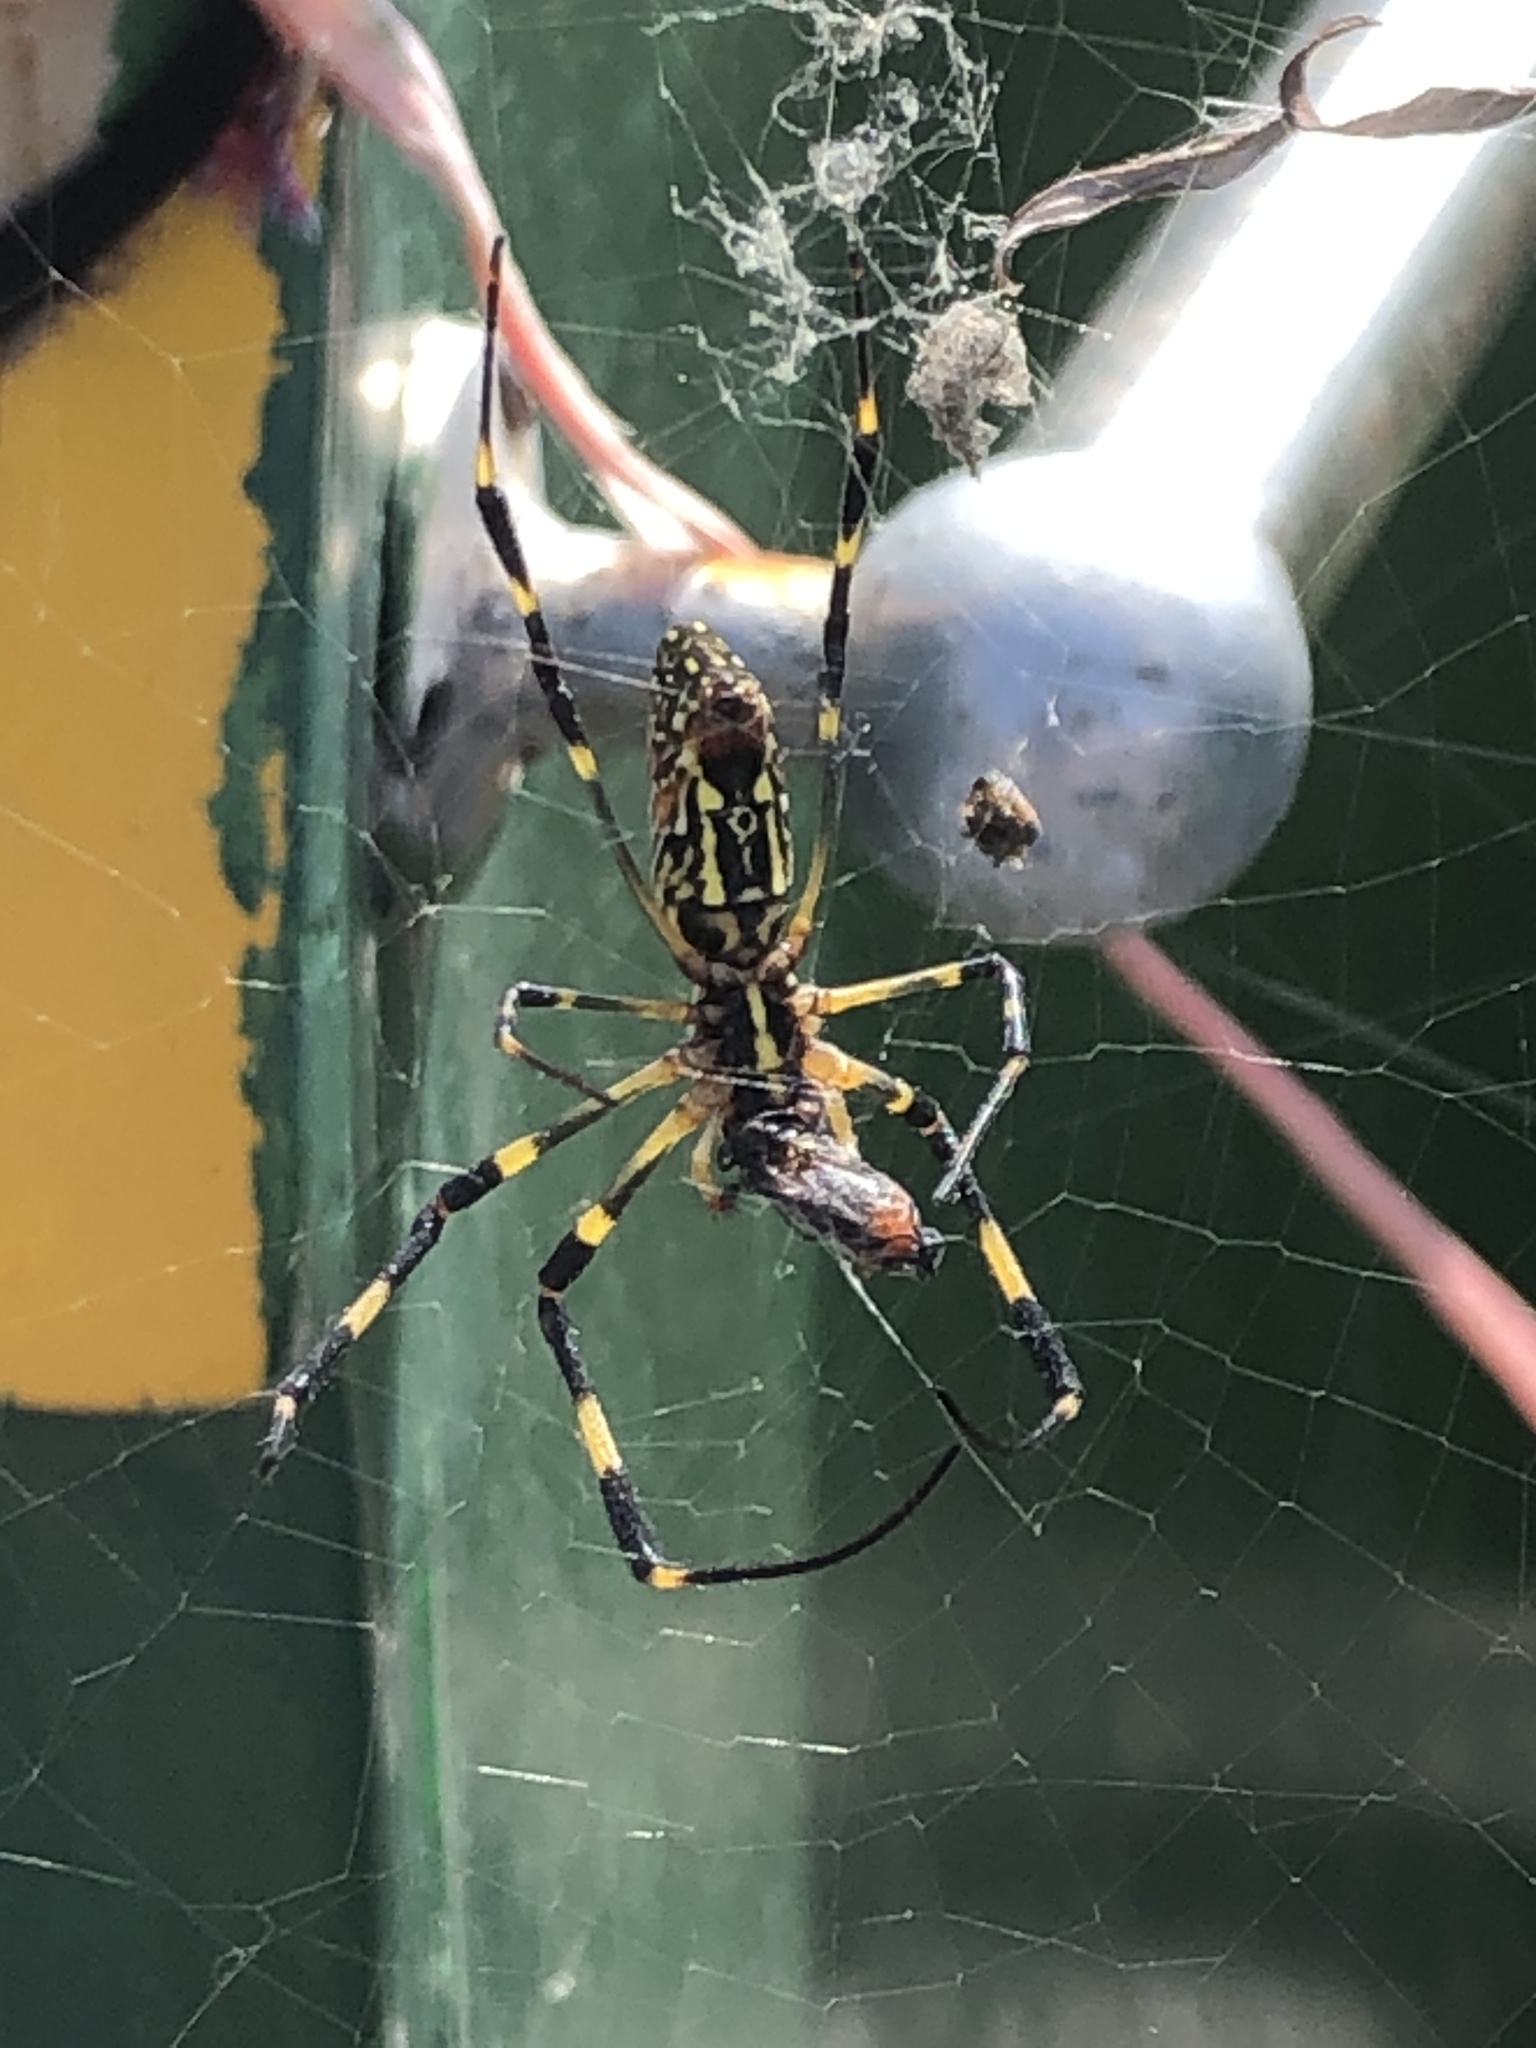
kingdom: Animalia
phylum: Arthropoda
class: Arachnida
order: Araneae
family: Araneidae
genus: Trichonephila
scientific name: Trichonephila clavata
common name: Jorō spider
